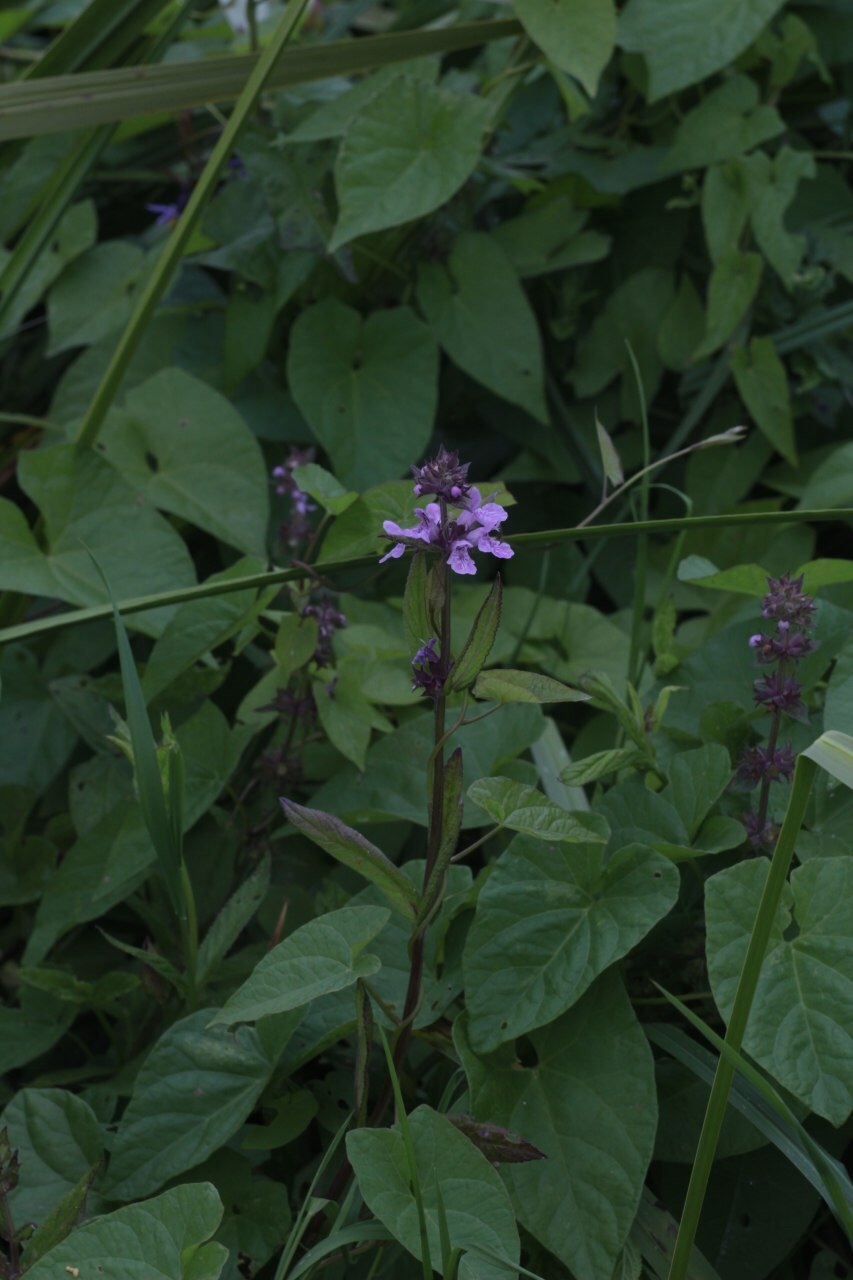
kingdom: Plantae
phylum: Tracheophyta
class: Magnoliopsida
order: Lamiales
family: Lamiaceae
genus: Stachys
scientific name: Stachys palustris
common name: Marsh woundwort
